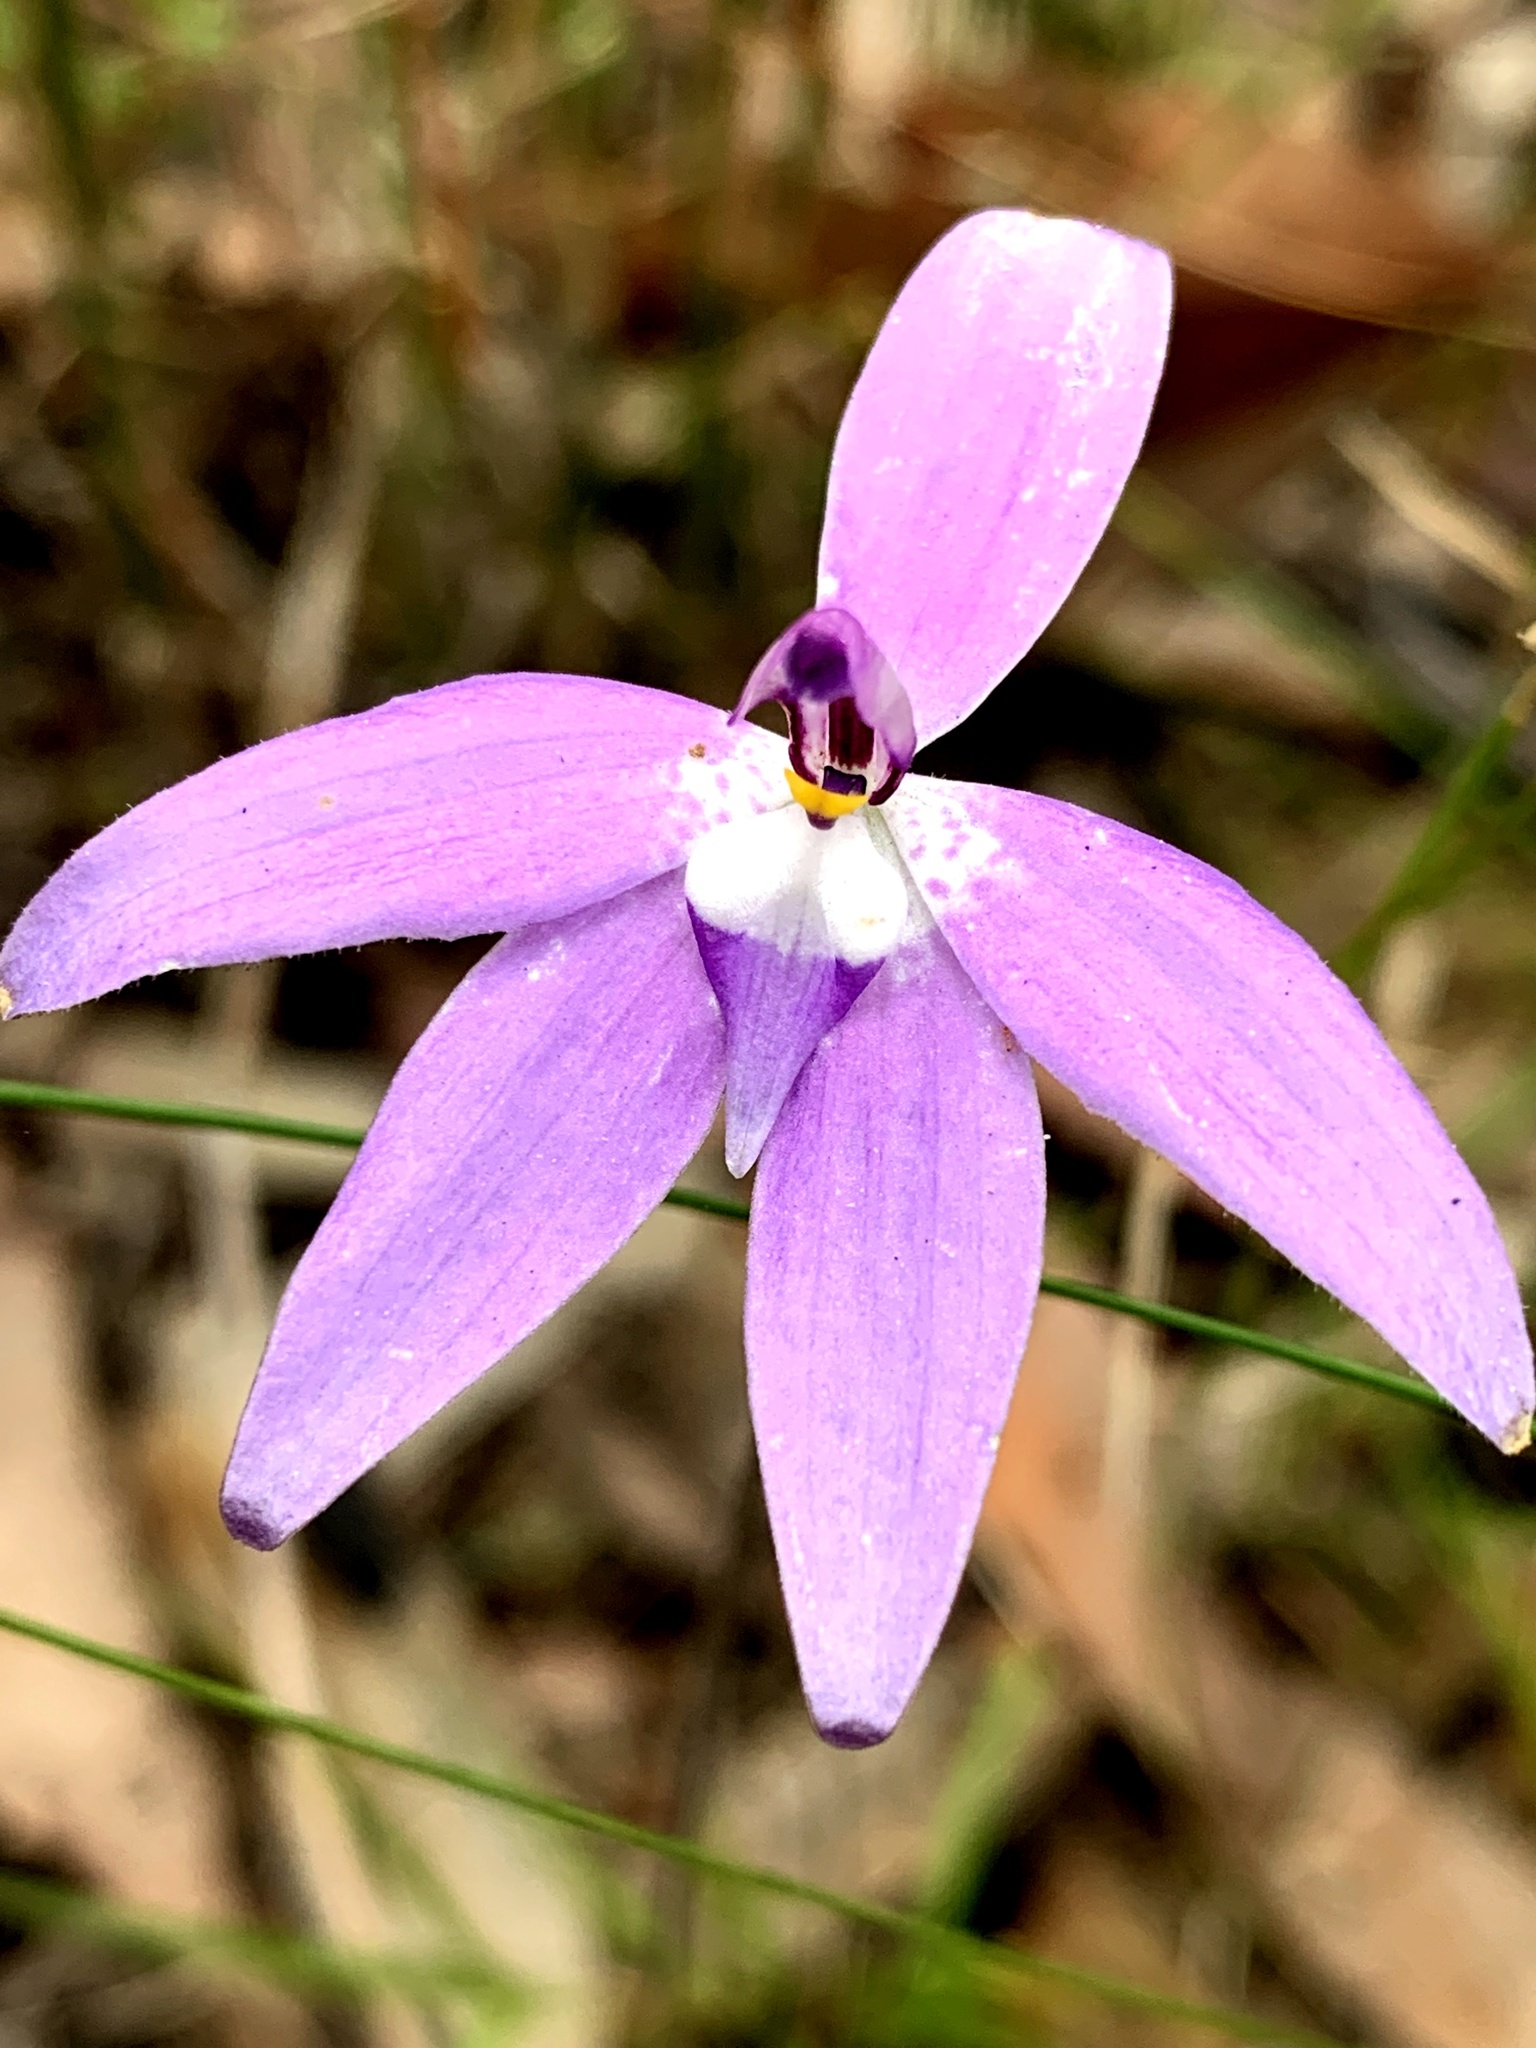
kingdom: Plantae
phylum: Tracheophyta
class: Liliopsida
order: Asparagales
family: Orchidaceae
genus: Caladenia
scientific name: Caladenia major
